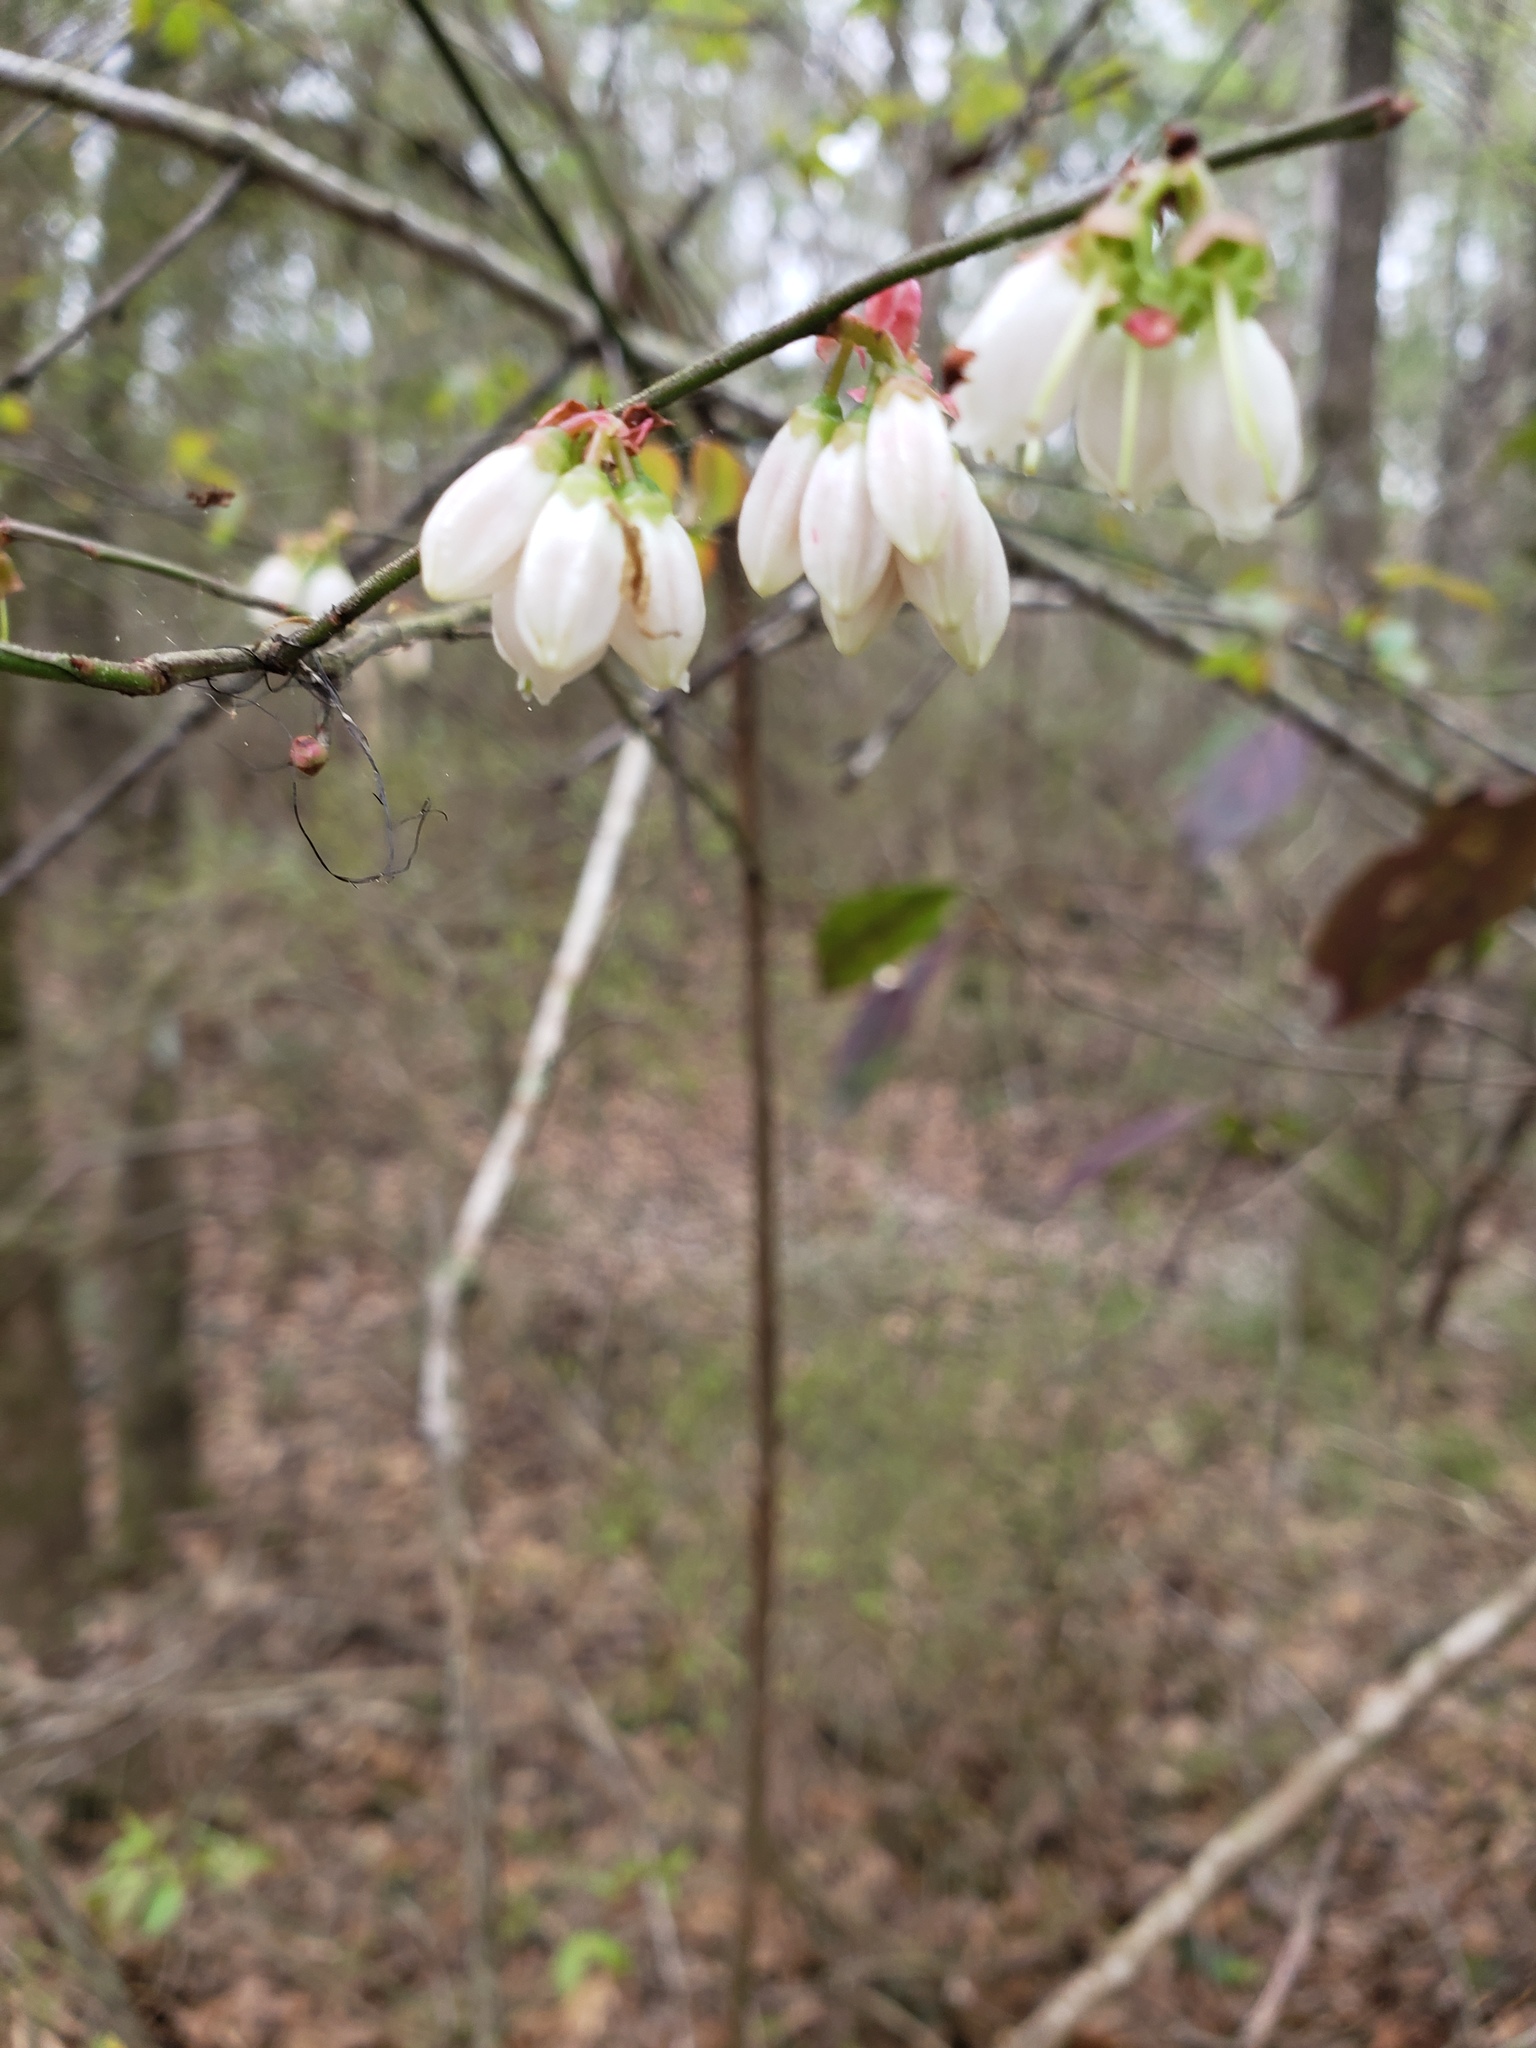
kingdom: Plantae
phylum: Tracheophyta
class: Magnoliopsida
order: Ericales
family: Ericaceae
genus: Vaccinium
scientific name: Vaccinium corymbosum
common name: Blueberry
